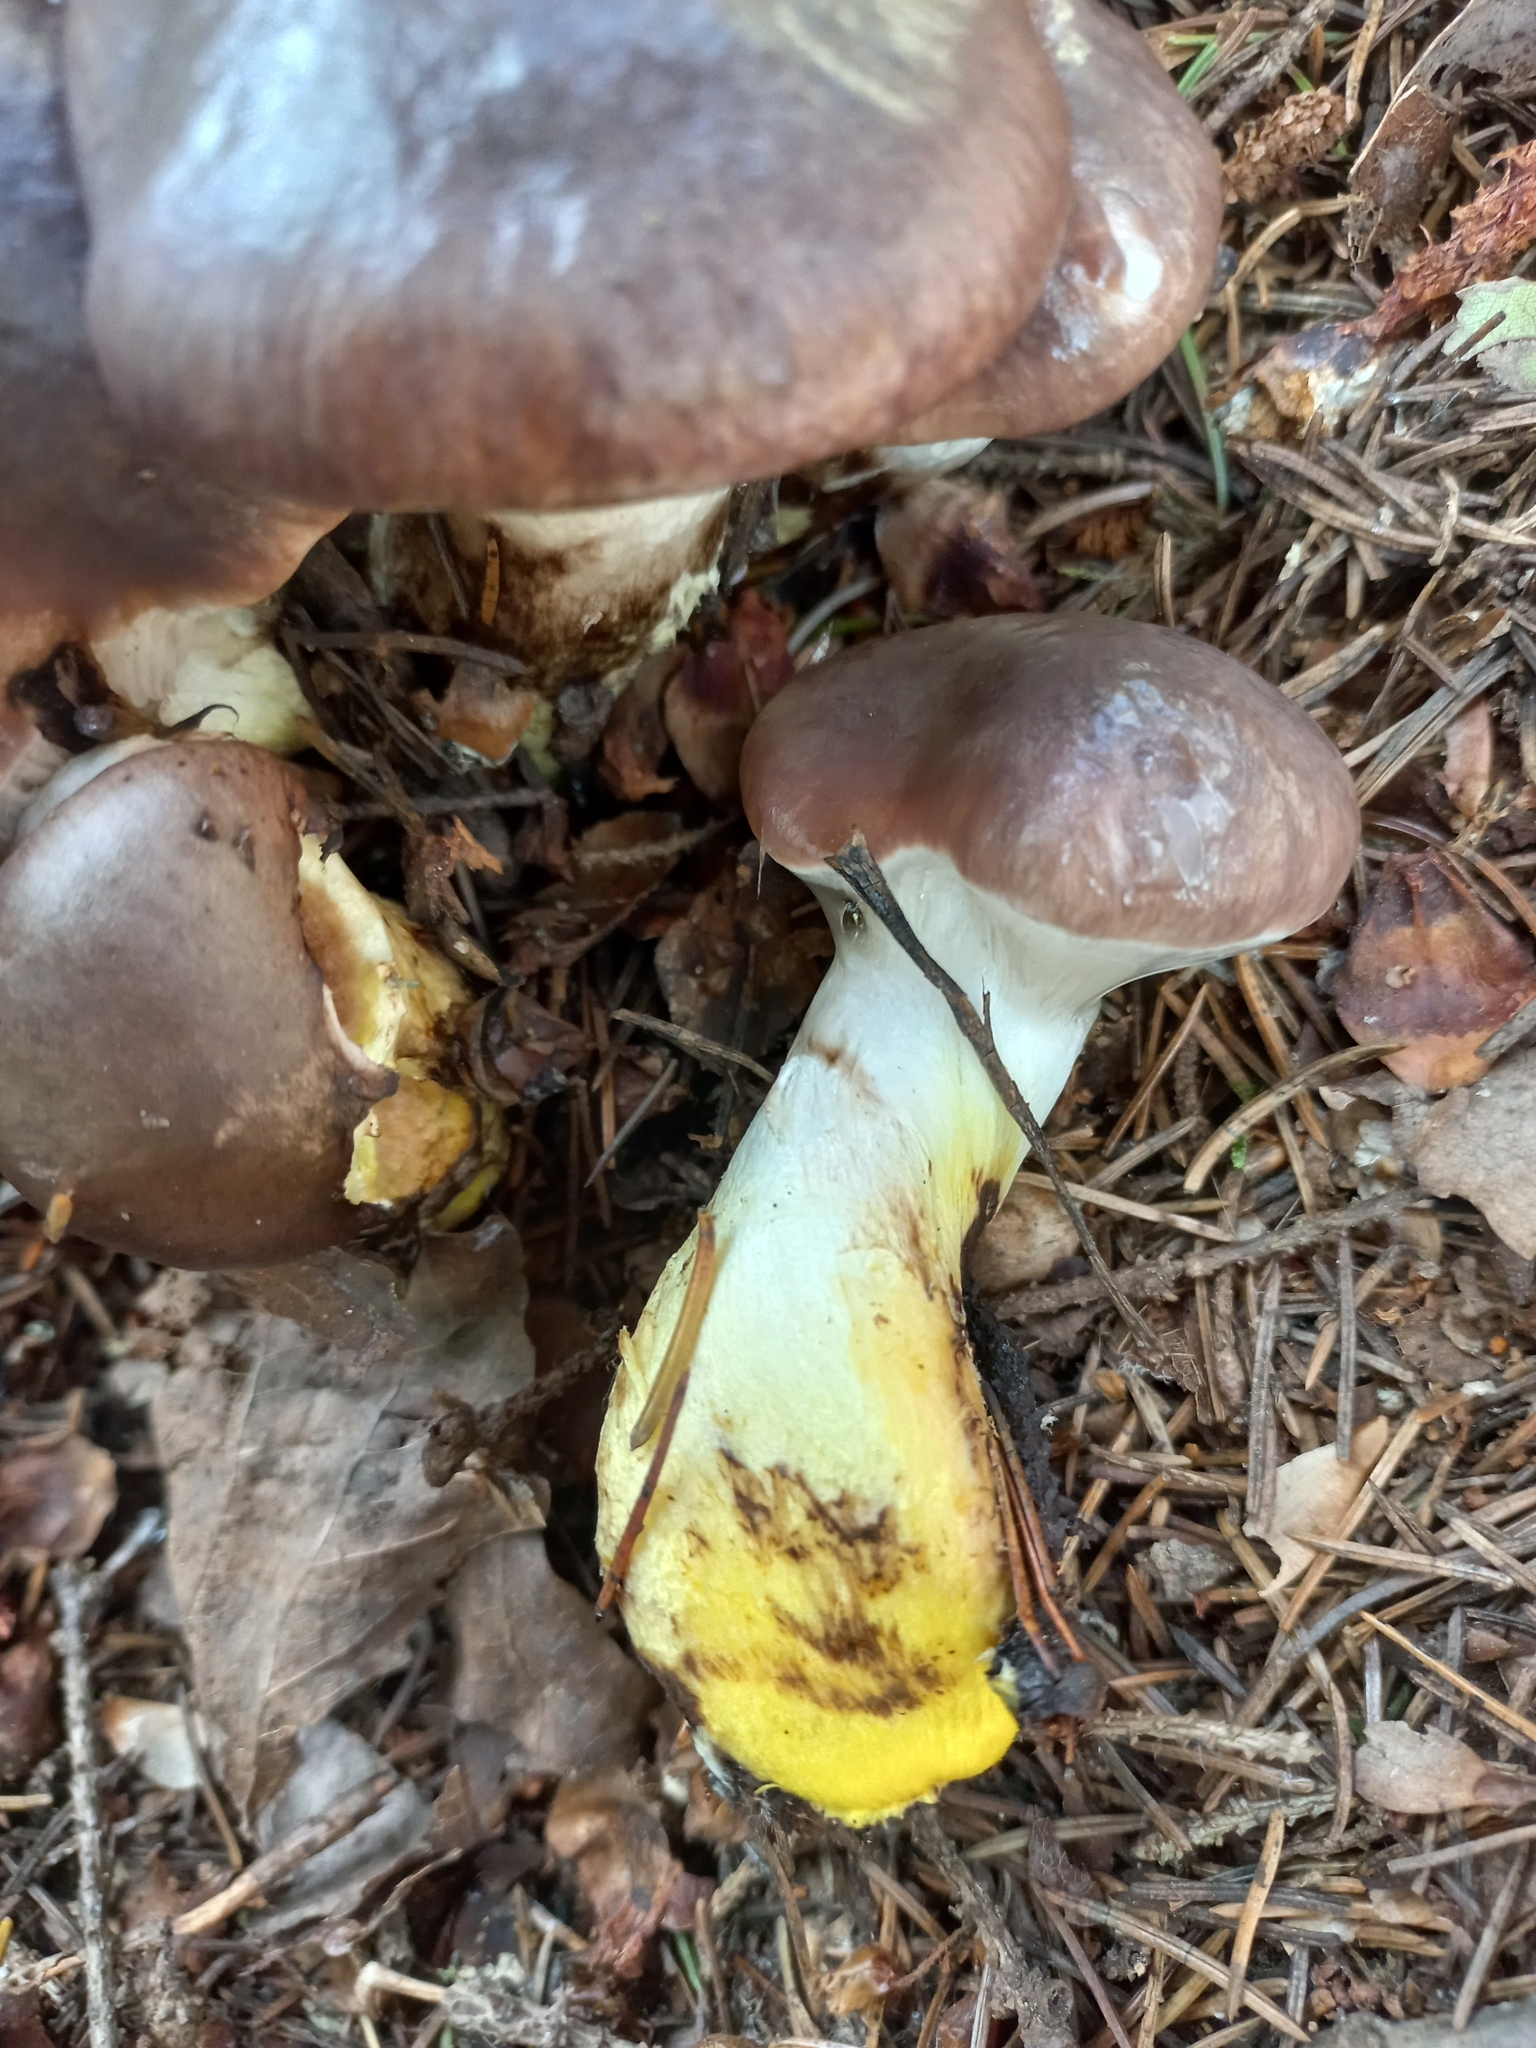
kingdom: Fungi
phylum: Basidiomycota
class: Agaricomycetes
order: Boletales
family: Gomphidiaceae
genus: Gomphidius
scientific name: Gomphidius glutinosus
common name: Slimy spike
